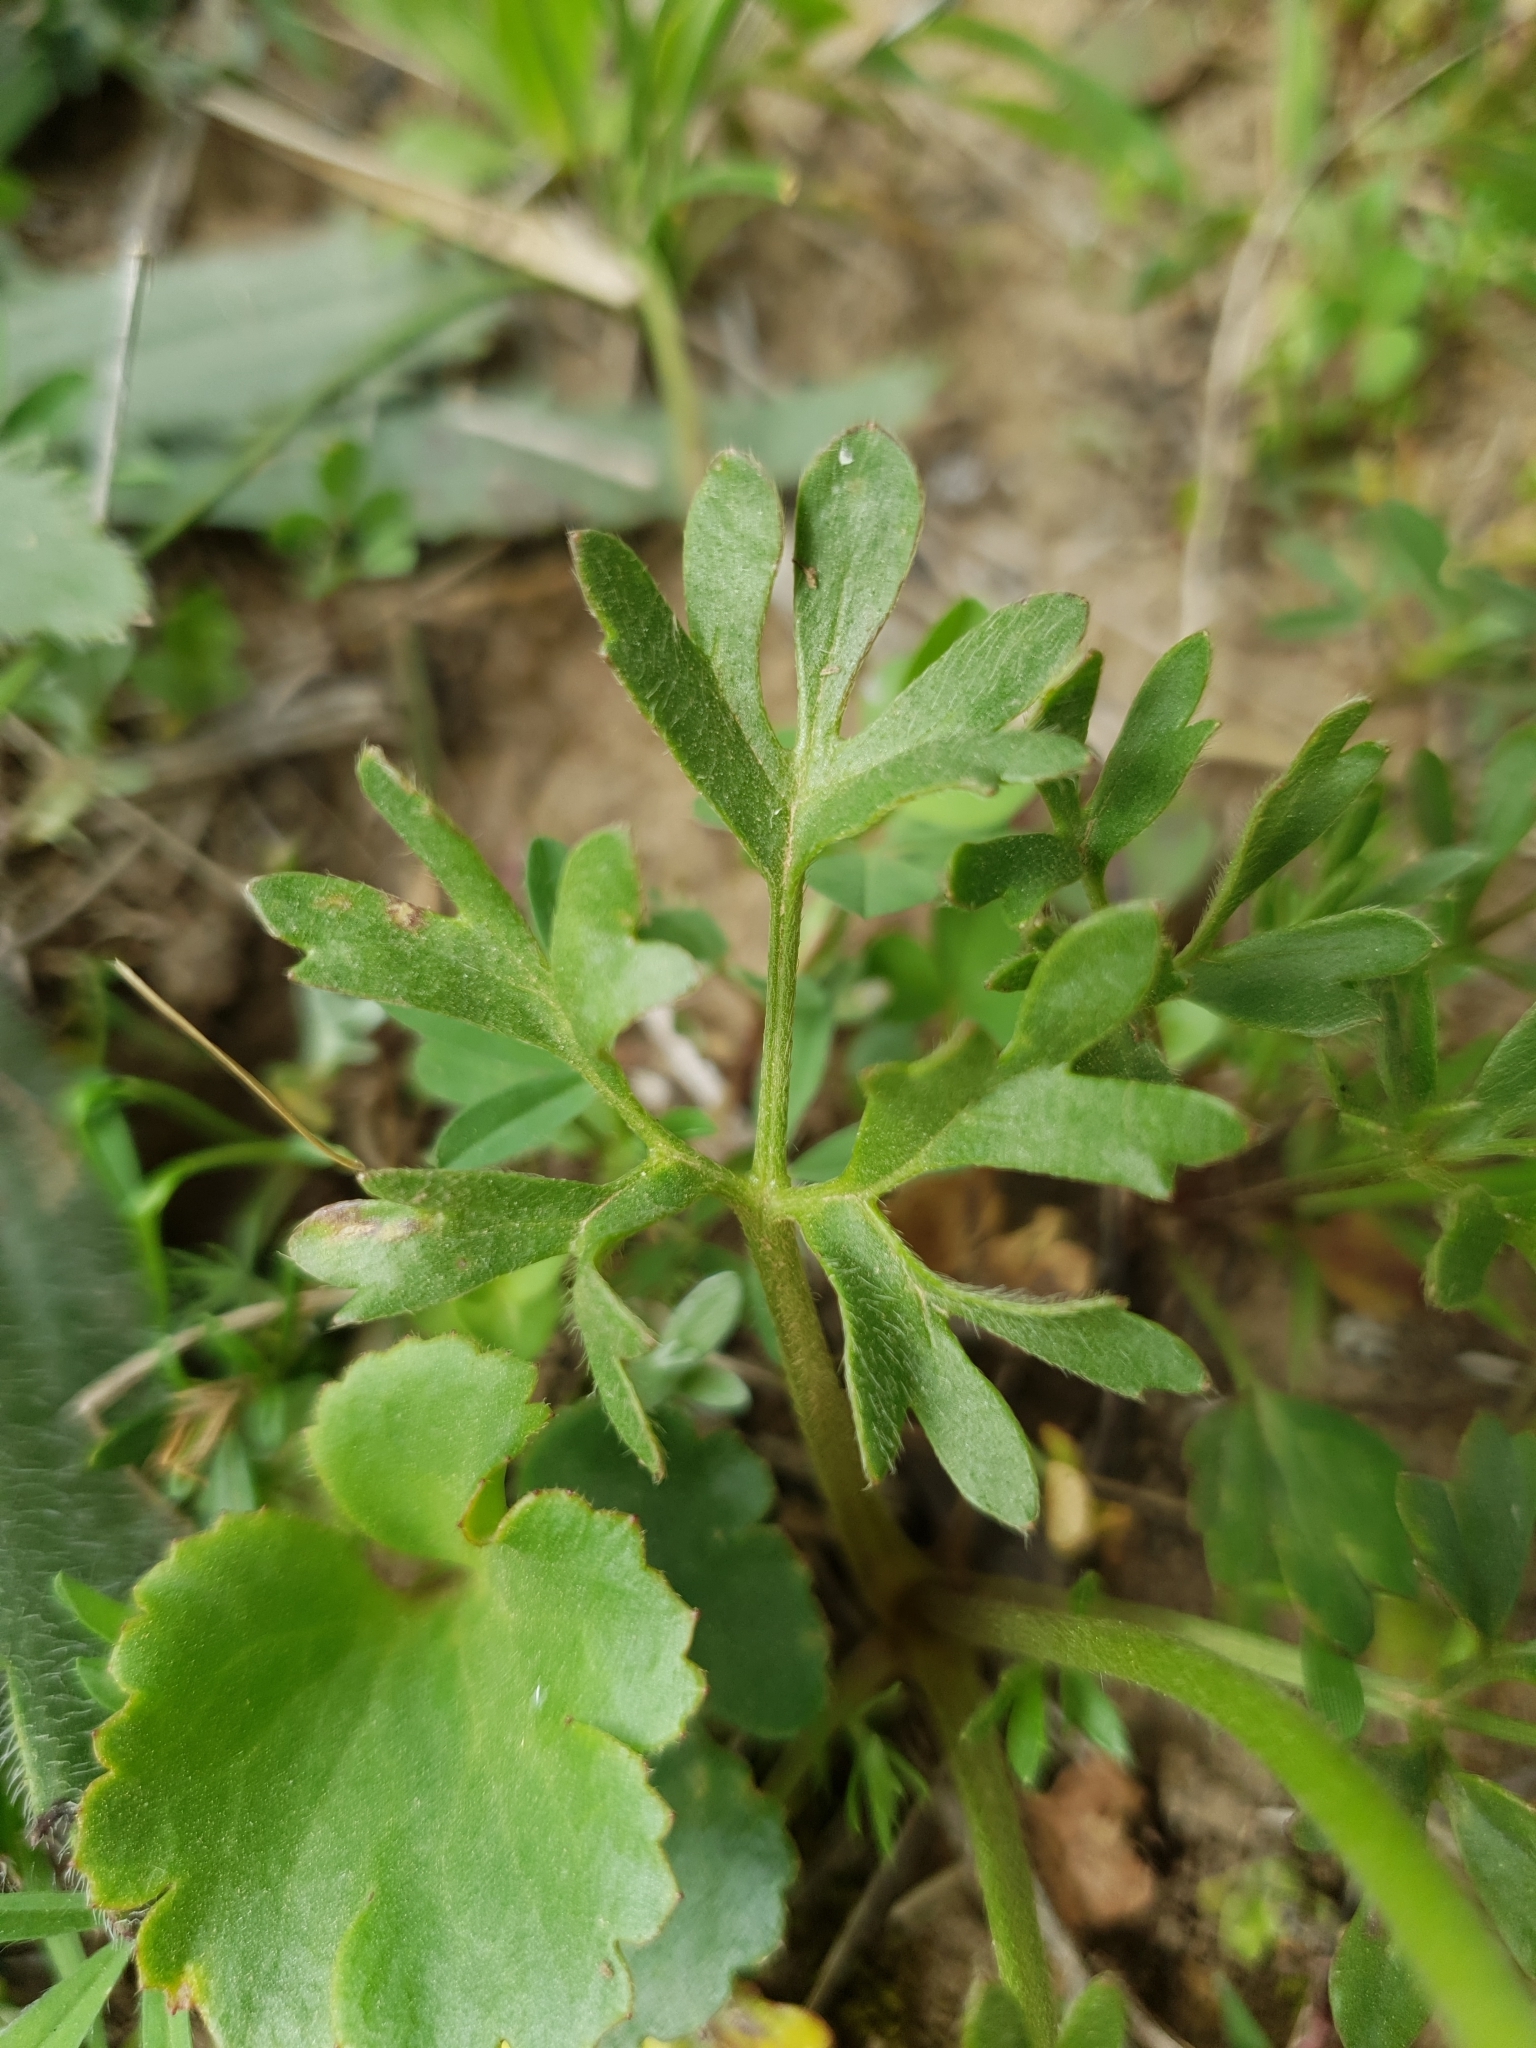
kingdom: Plantae
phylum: Tracheophyta
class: Magnoliopsida
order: Ranunculales
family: Ranunculaceae
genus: Ranunculus
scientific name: Ranunculus paludosus
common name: Jersey buttercup
